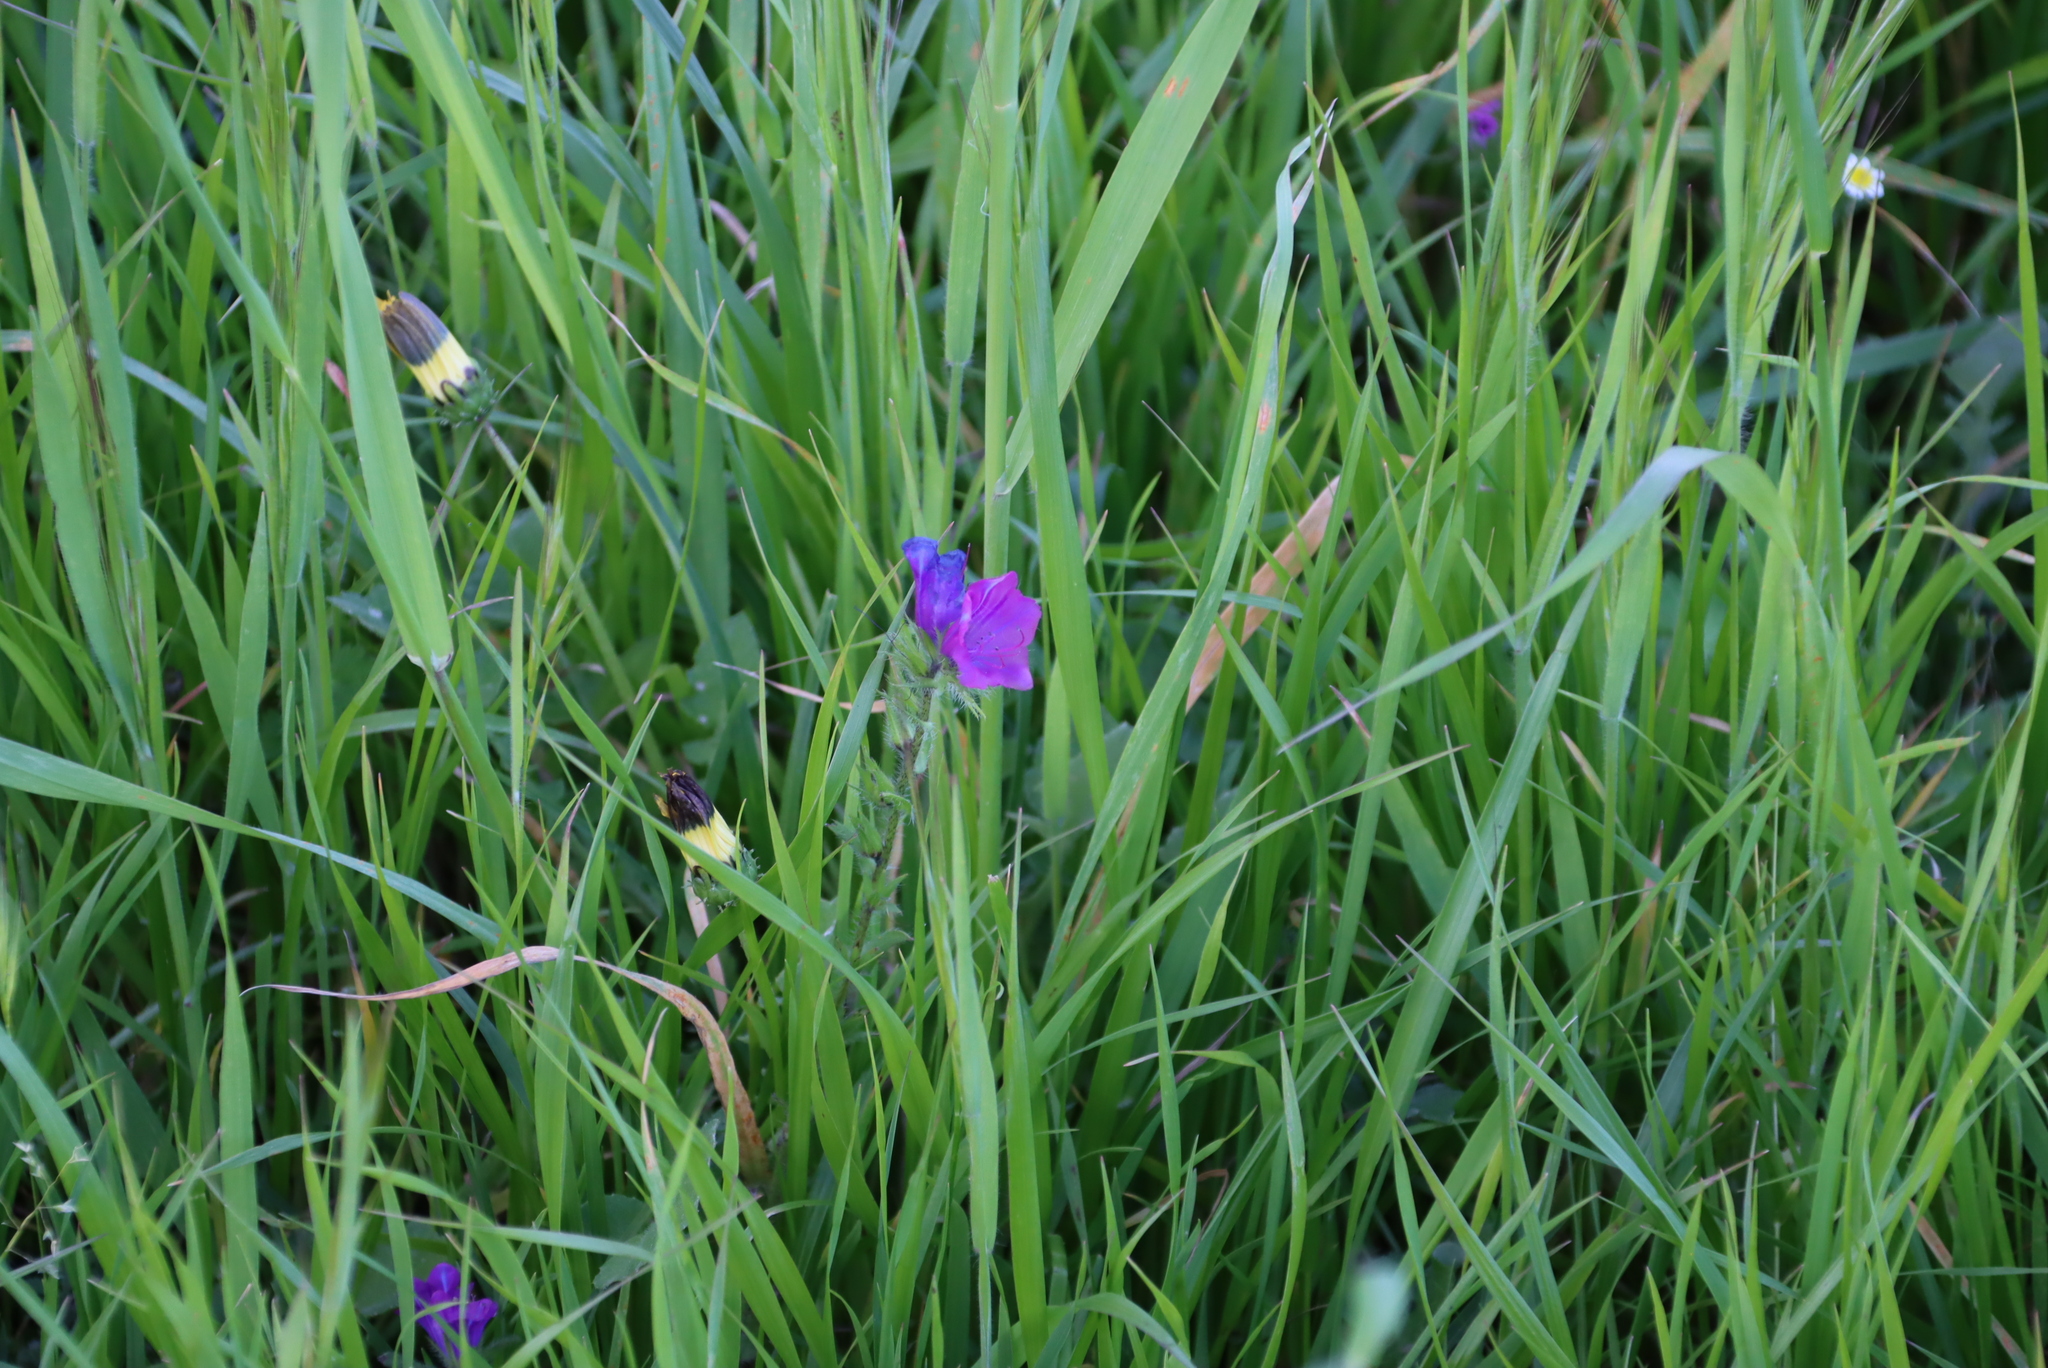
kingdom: Plantae
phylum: Tracheophyta
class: Magnoliopsida
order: Boraginales
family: Boraginaceae
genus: Echium
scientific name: Echium plantagineum
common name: Purple viper's-bugloss
